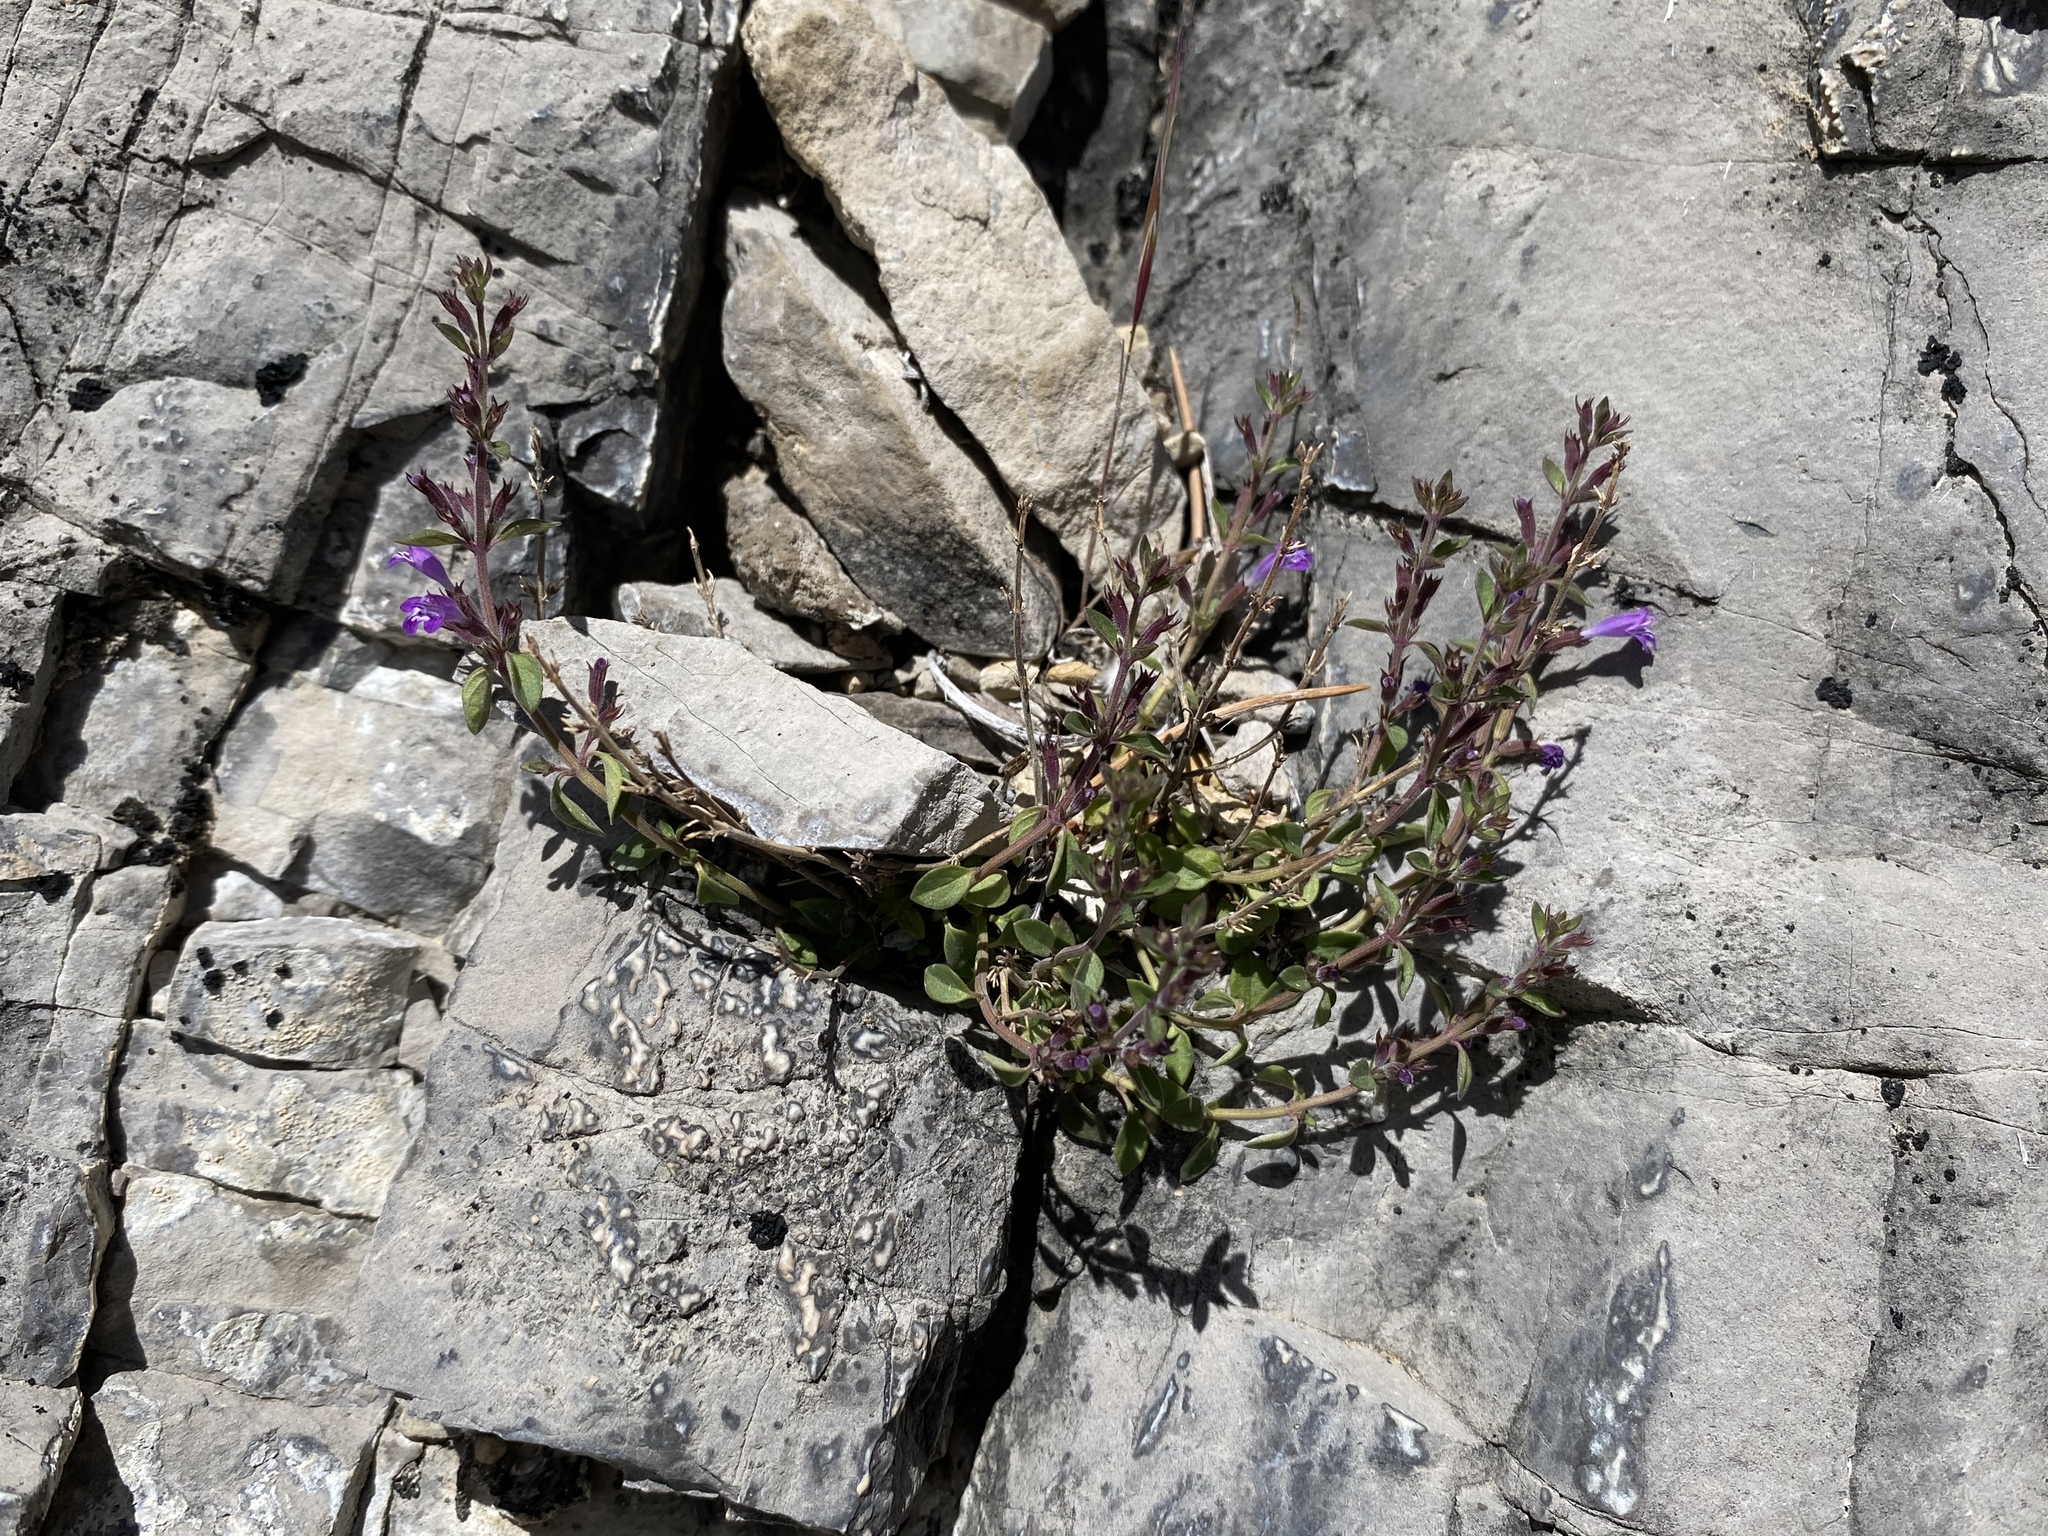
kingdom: Plantae
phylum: Tracheophyta
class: Magnoliopsida
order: Lamiales
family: Lamiaceae
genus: Hedeoma
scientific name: Hedeoma nana
